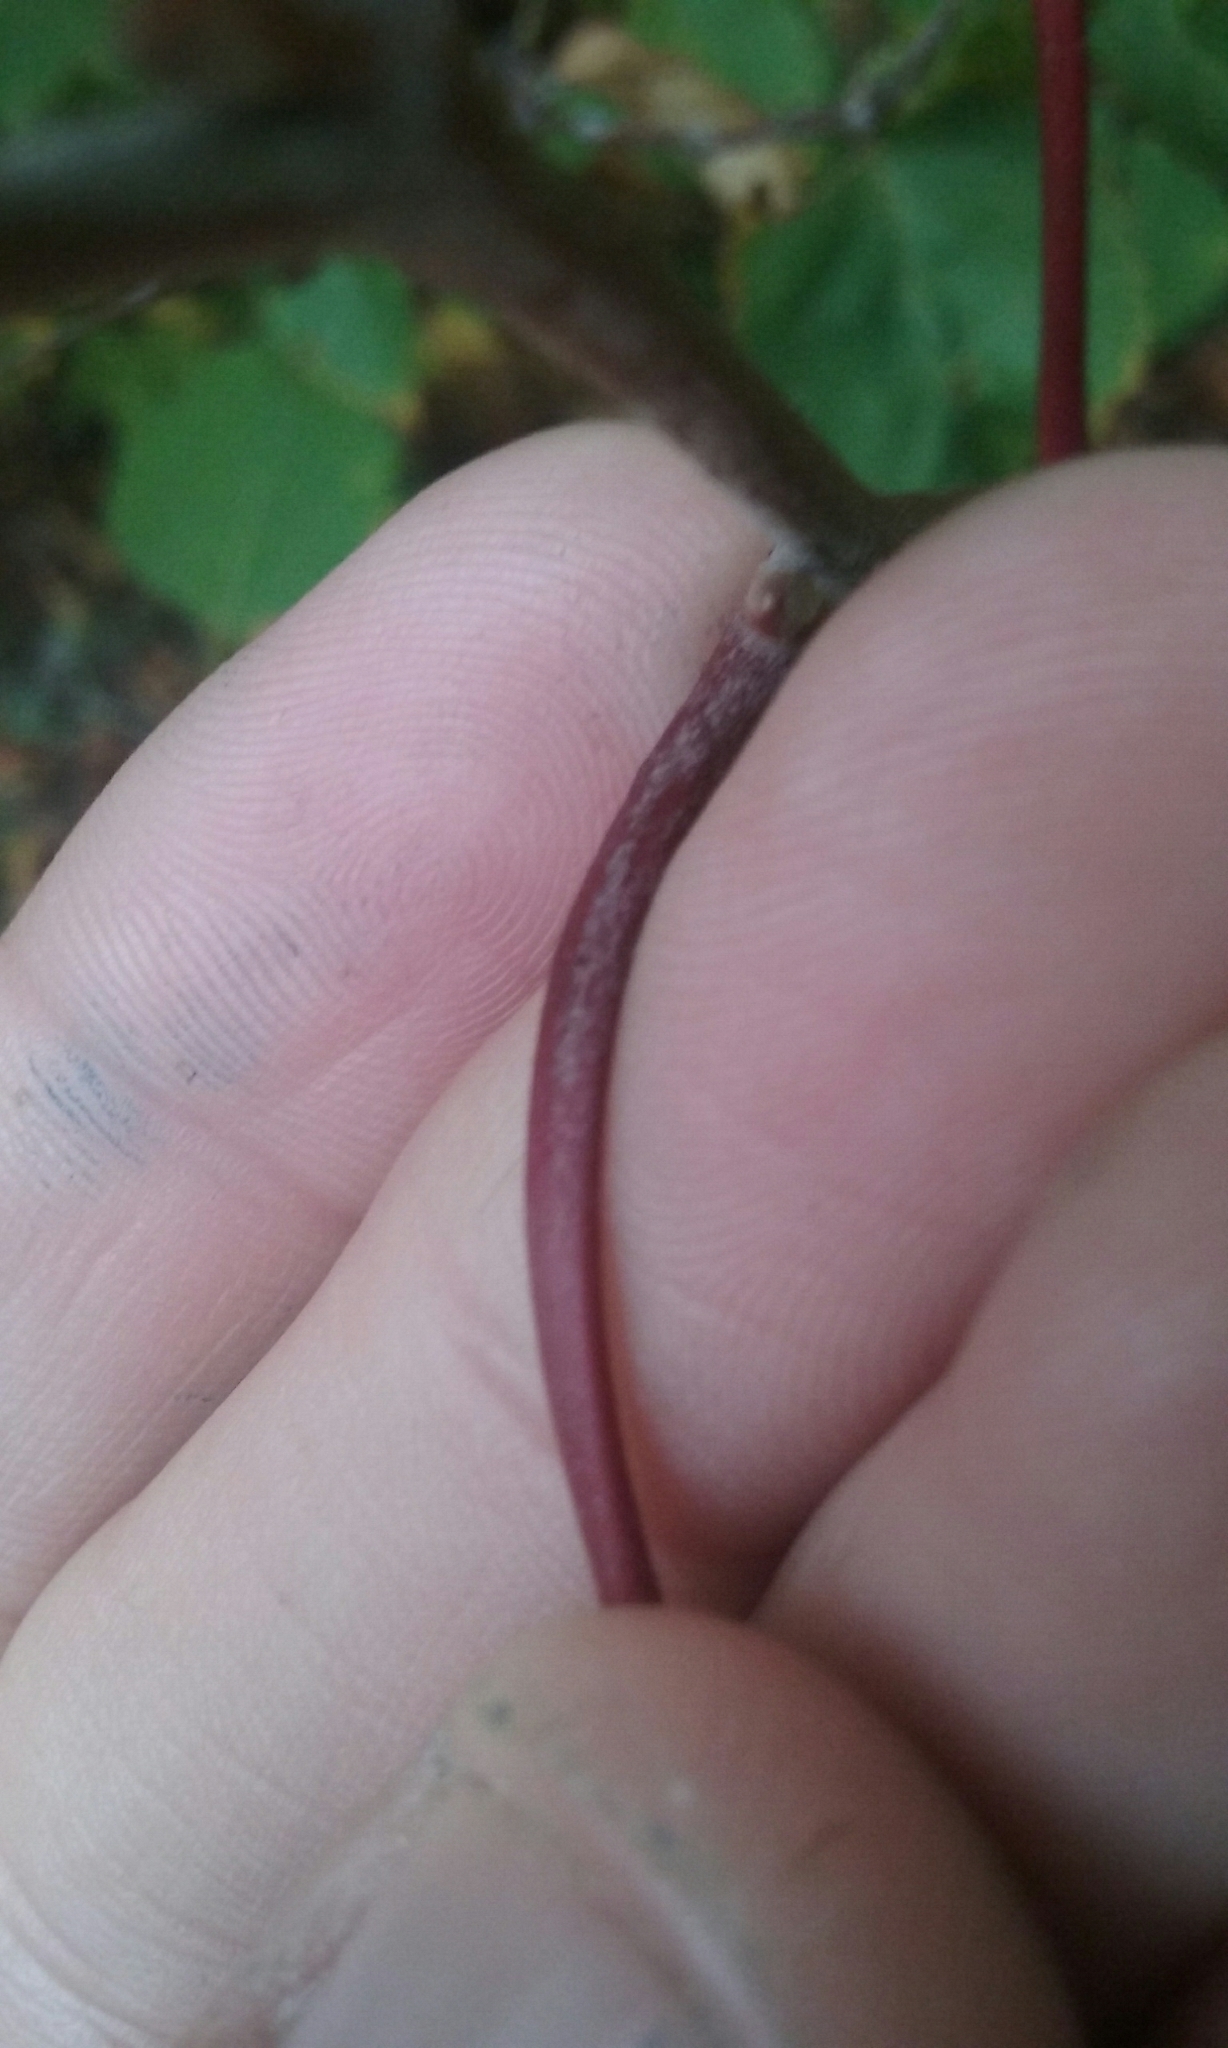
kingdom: Plantae
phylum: Tracheophyta
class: Magnoliopsida
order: Malpighiales
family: Salicaceae
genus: Populus
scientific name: Populus tremuloides
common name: Quaking aspen
